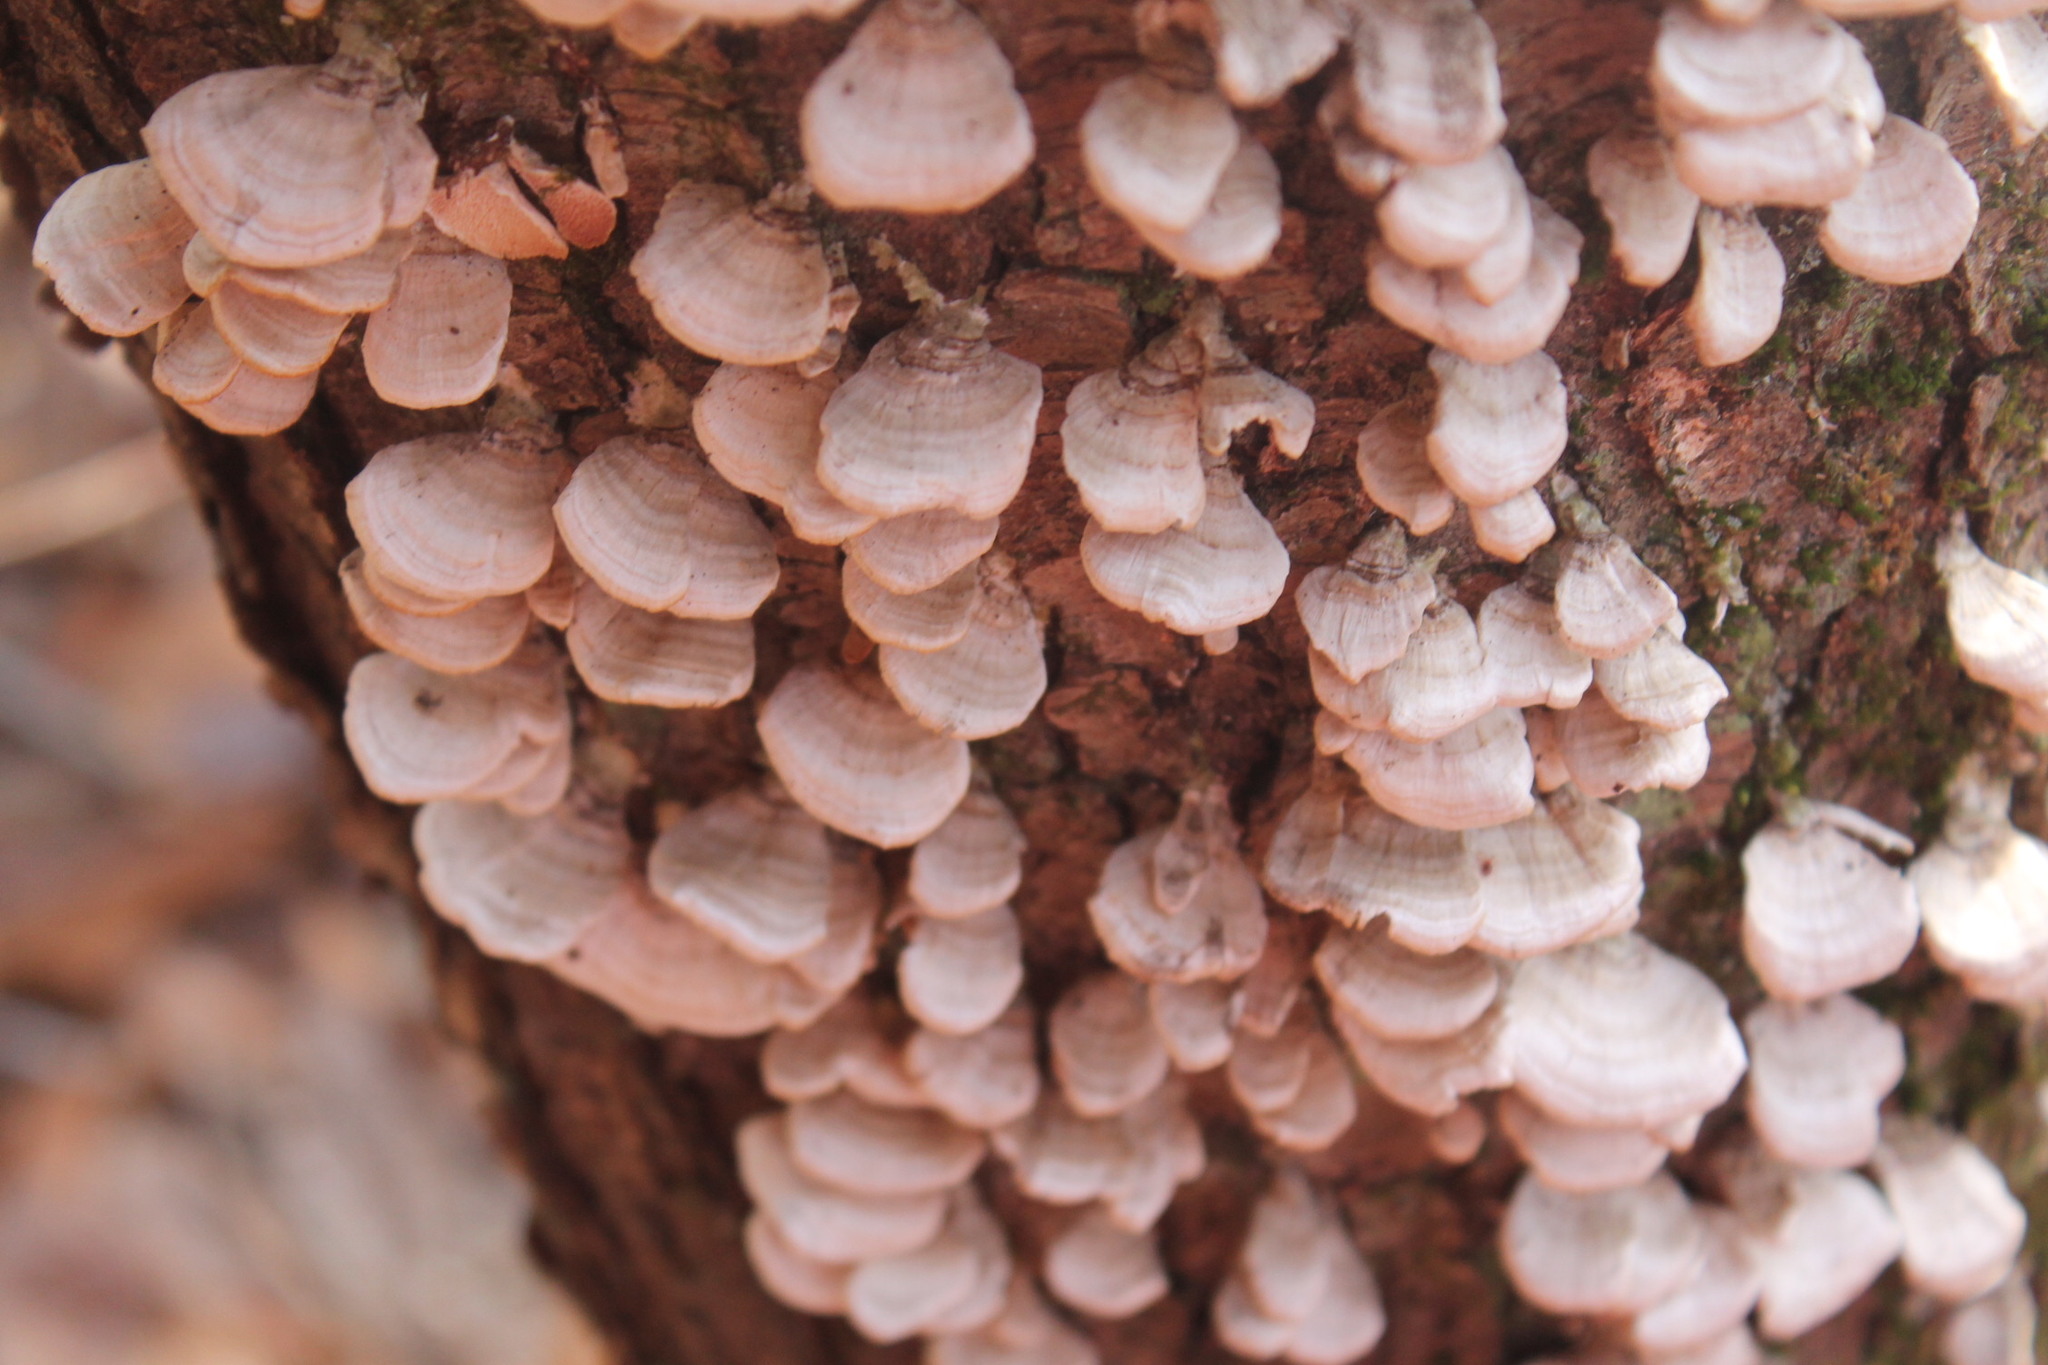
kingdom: Fungi
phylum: Basidiomycota
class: Agaricomycetes
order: Hymenochaetales
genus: Trichaptum
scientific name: Trichaptum biforme
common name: Violet-toothed polypore
